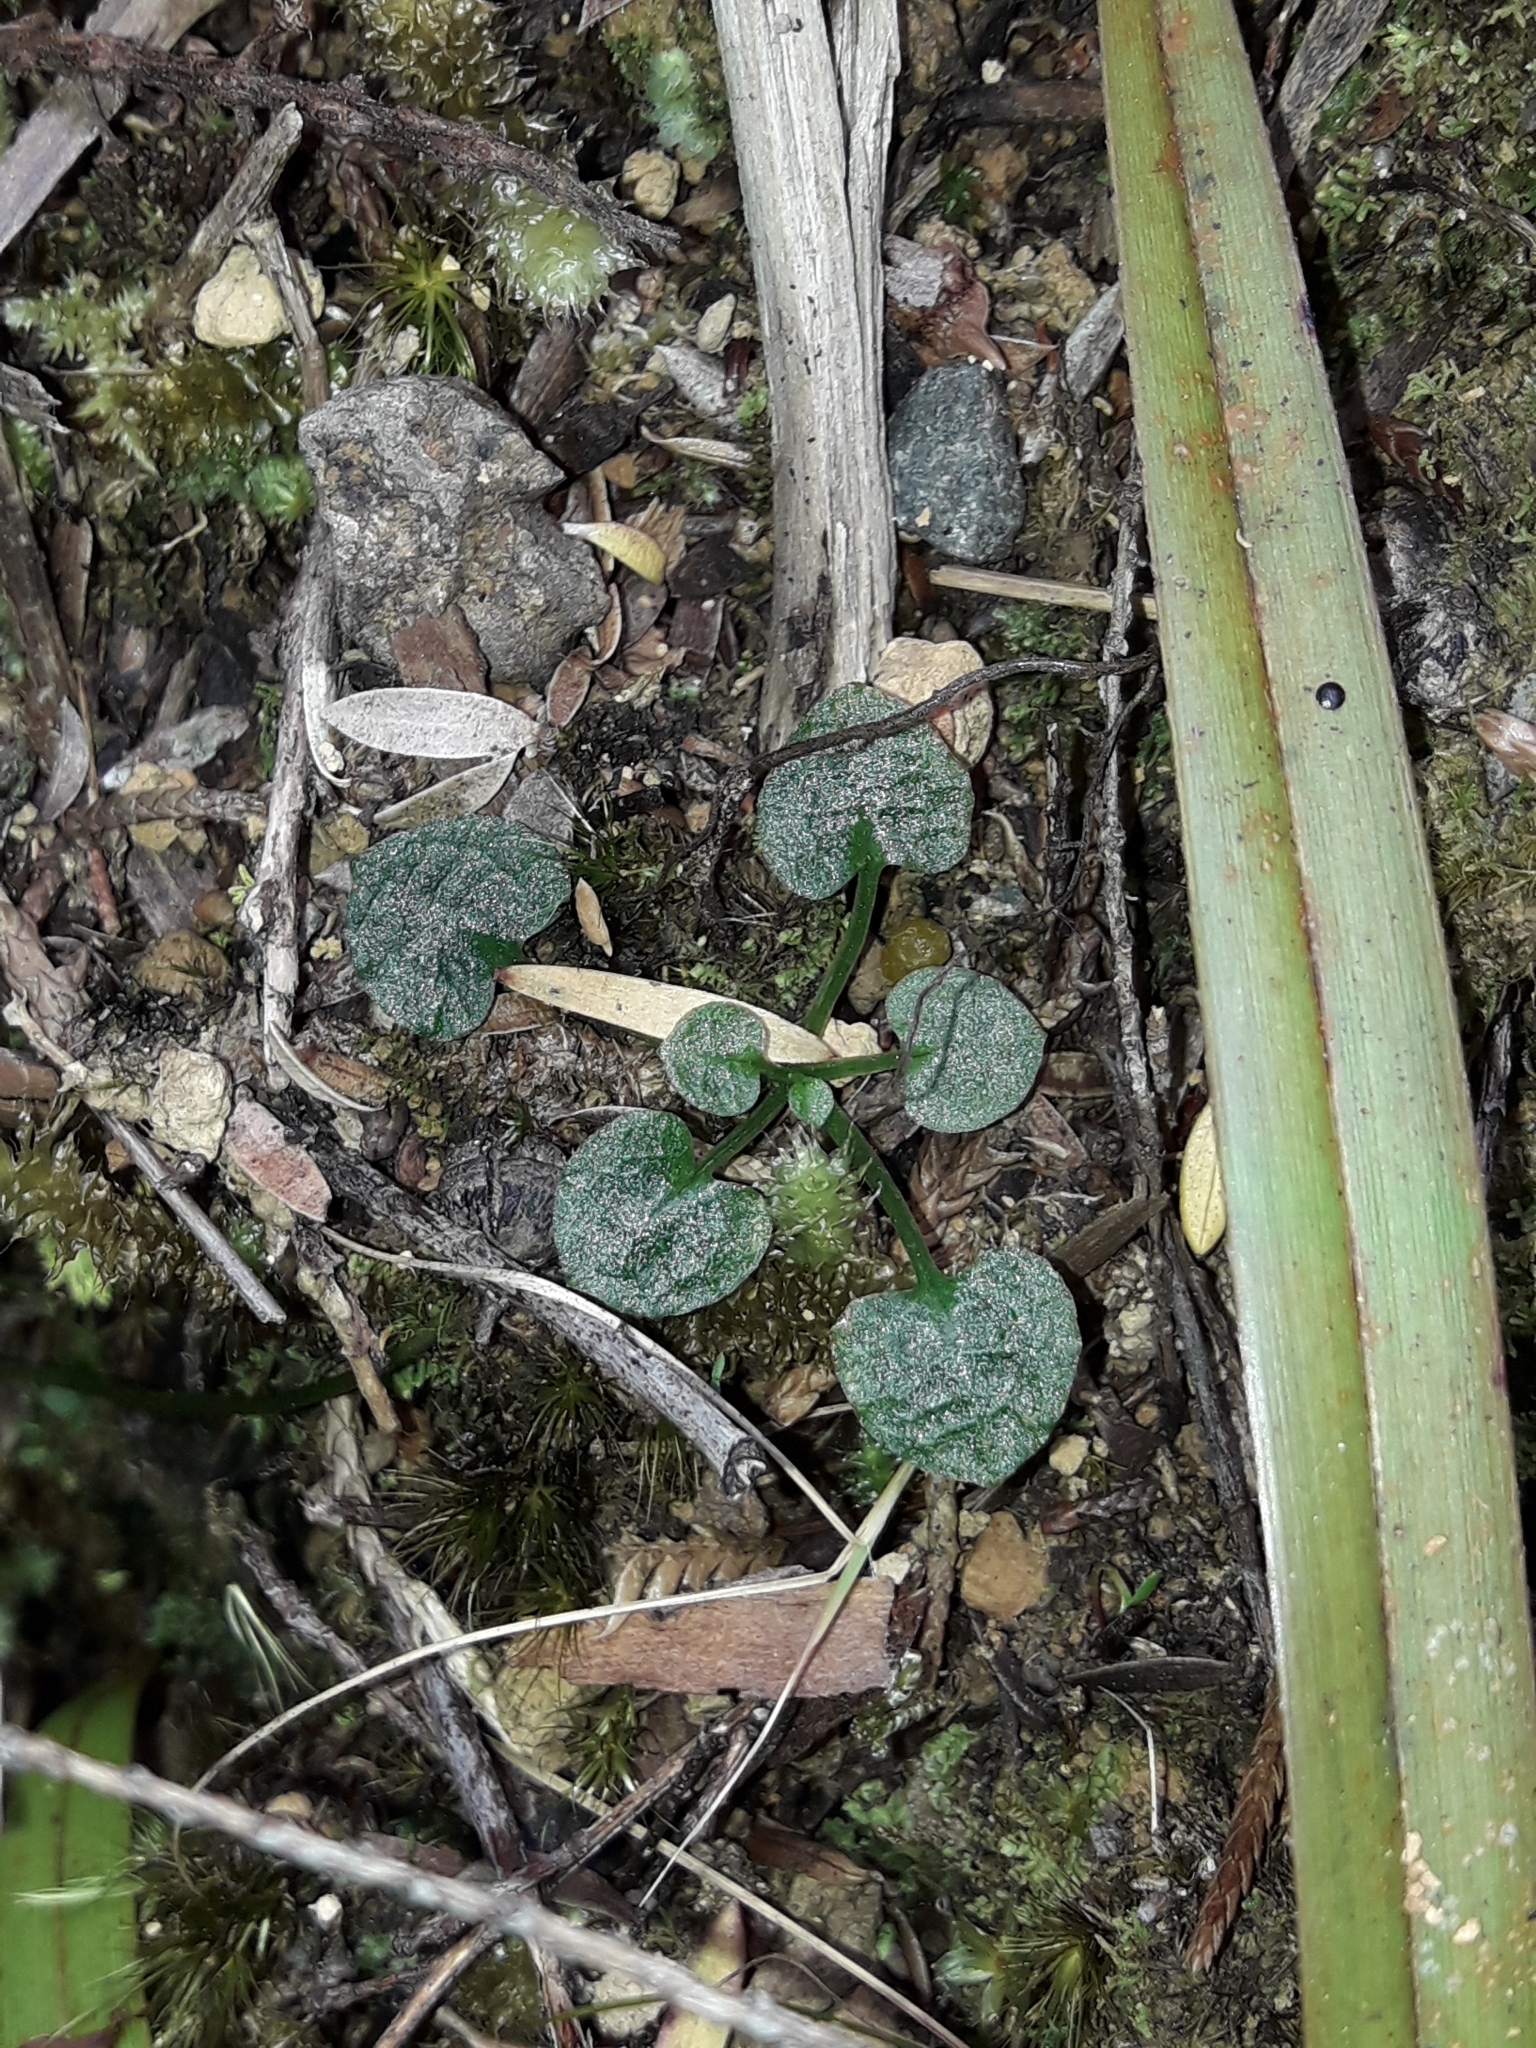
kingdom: Plantae
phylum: Tracheophyta
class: Liliopsida
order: Asparagales
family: Orchidaceae
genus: Pterostylis
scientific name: Pterostylis trullifolia
